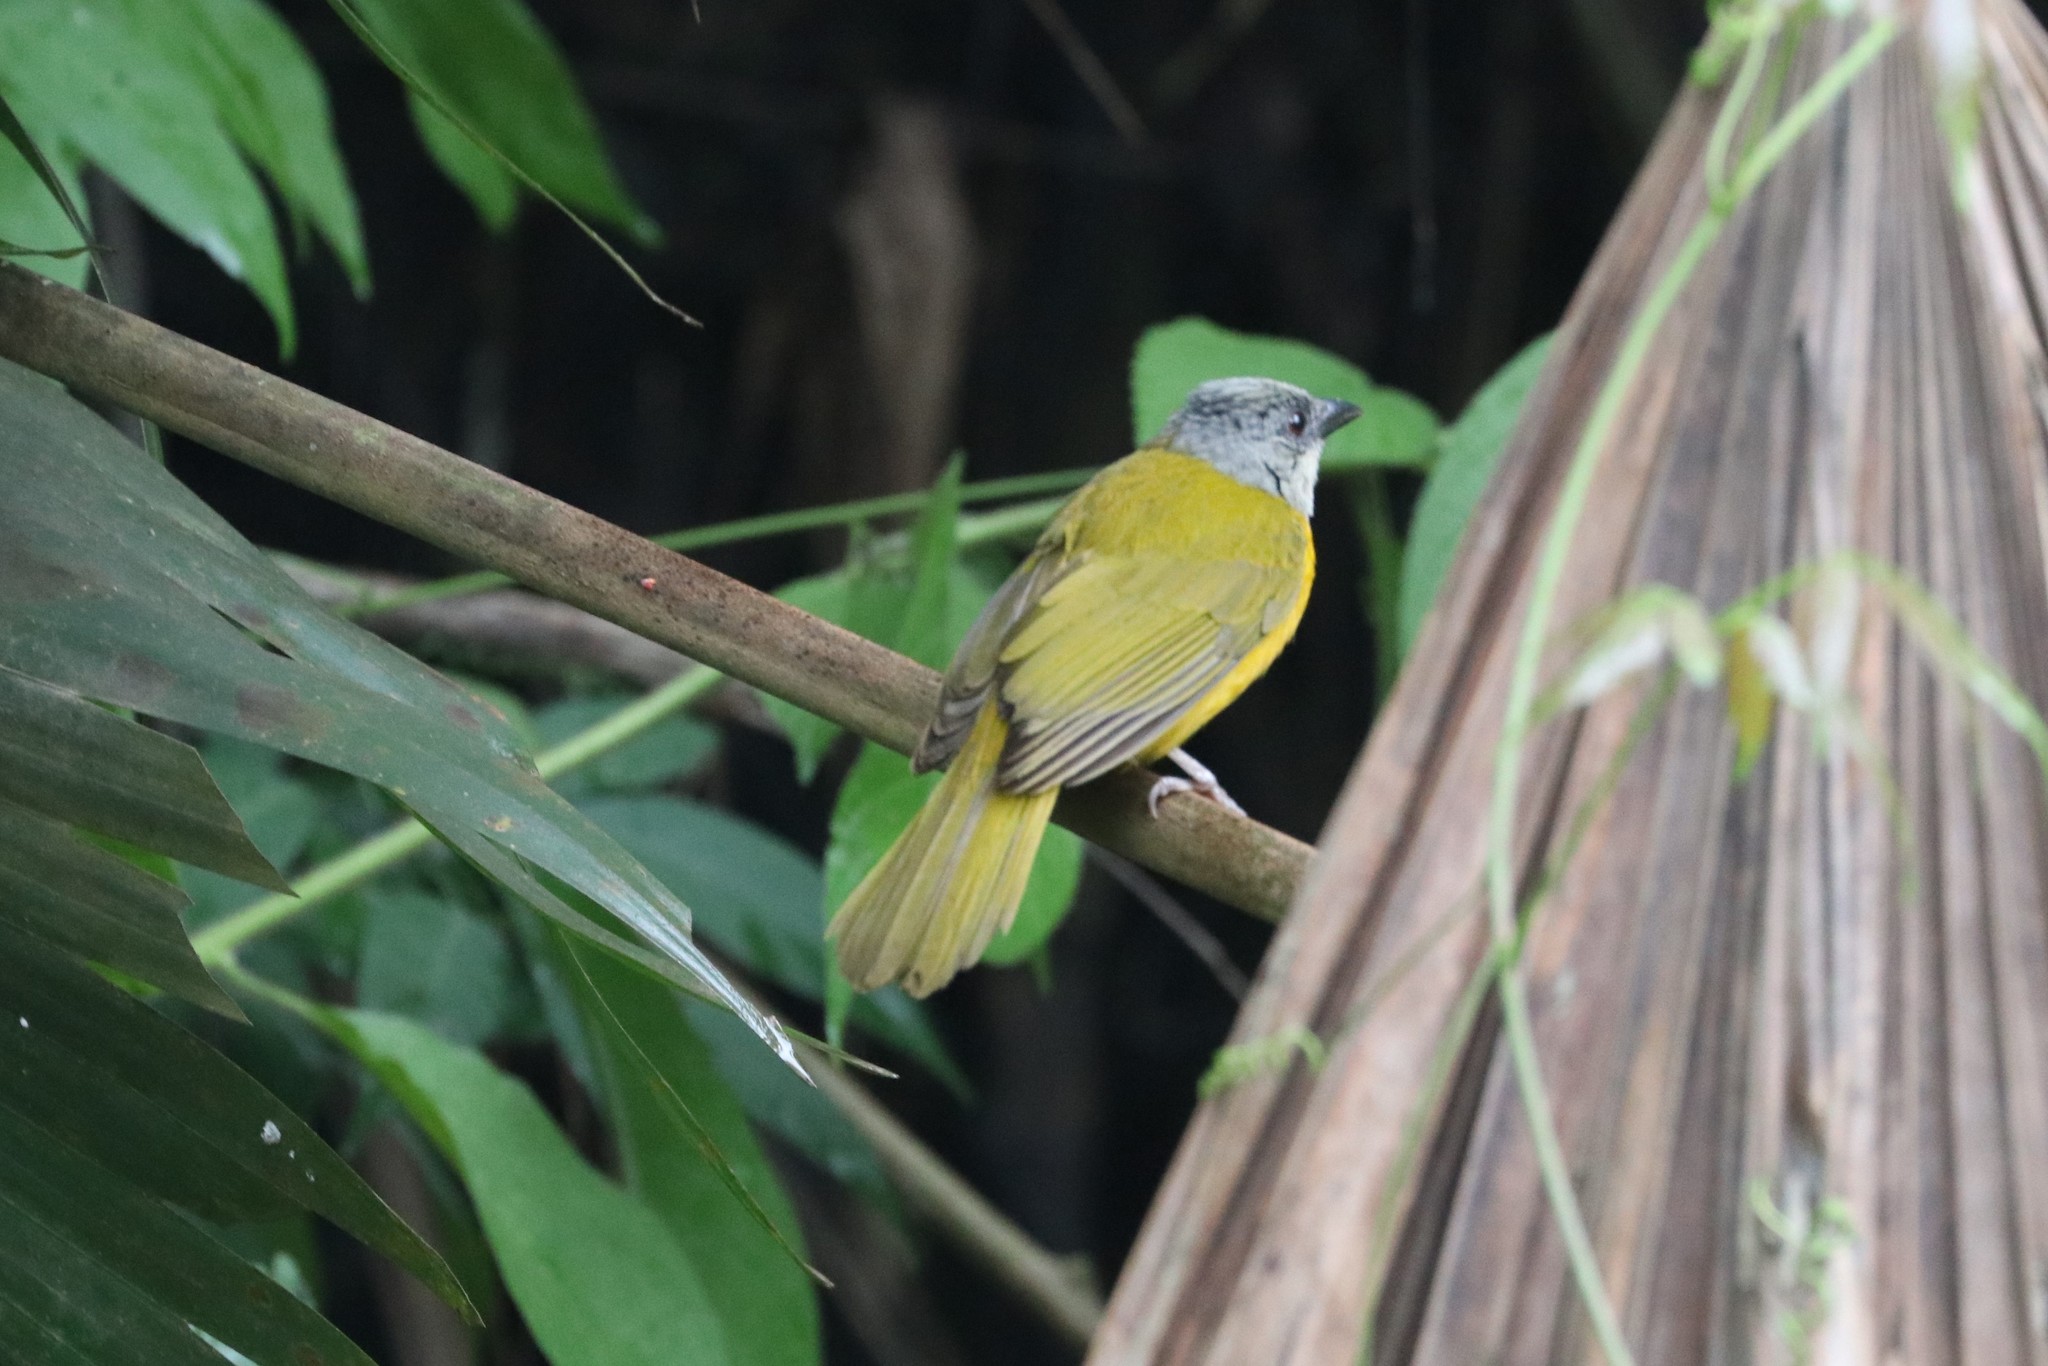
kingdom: Animalia
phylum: Chordata
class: Aves
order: Passeriformes
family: Thraupidae
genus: Eucometis
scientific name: Eucometis penicillata
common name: Grey-headed tanager
